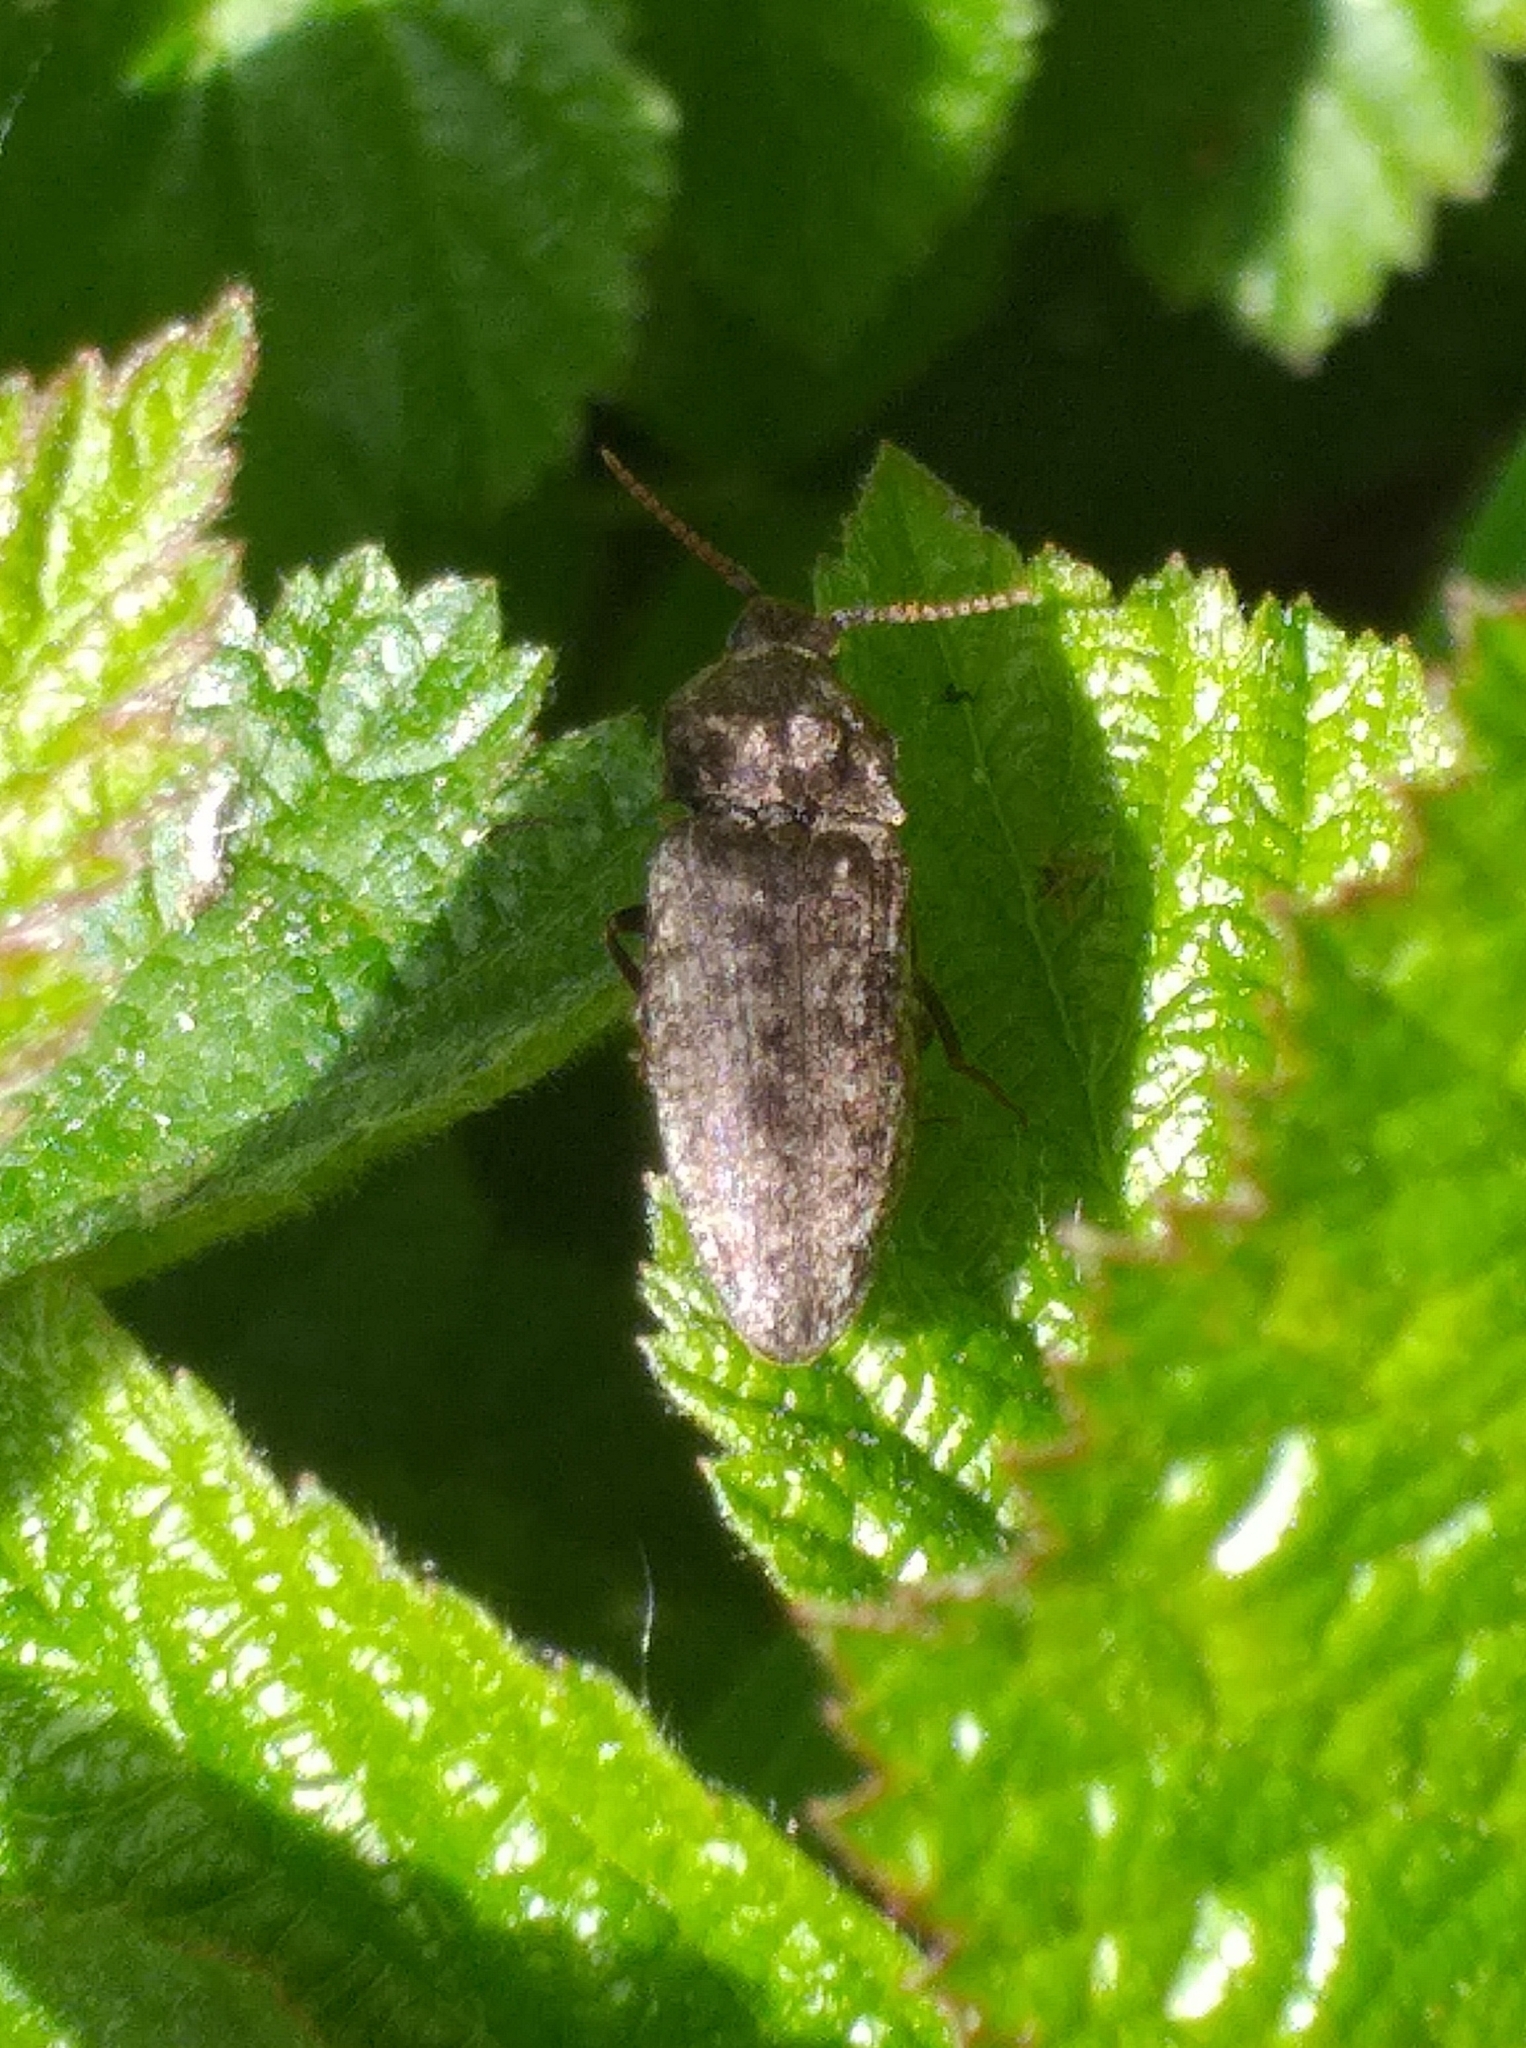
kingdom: Animalia
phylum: Arthropoda
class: Insecta
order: Coleoptera
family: Elateridae
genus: Agrypnus
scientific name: Agrypnus murinus
